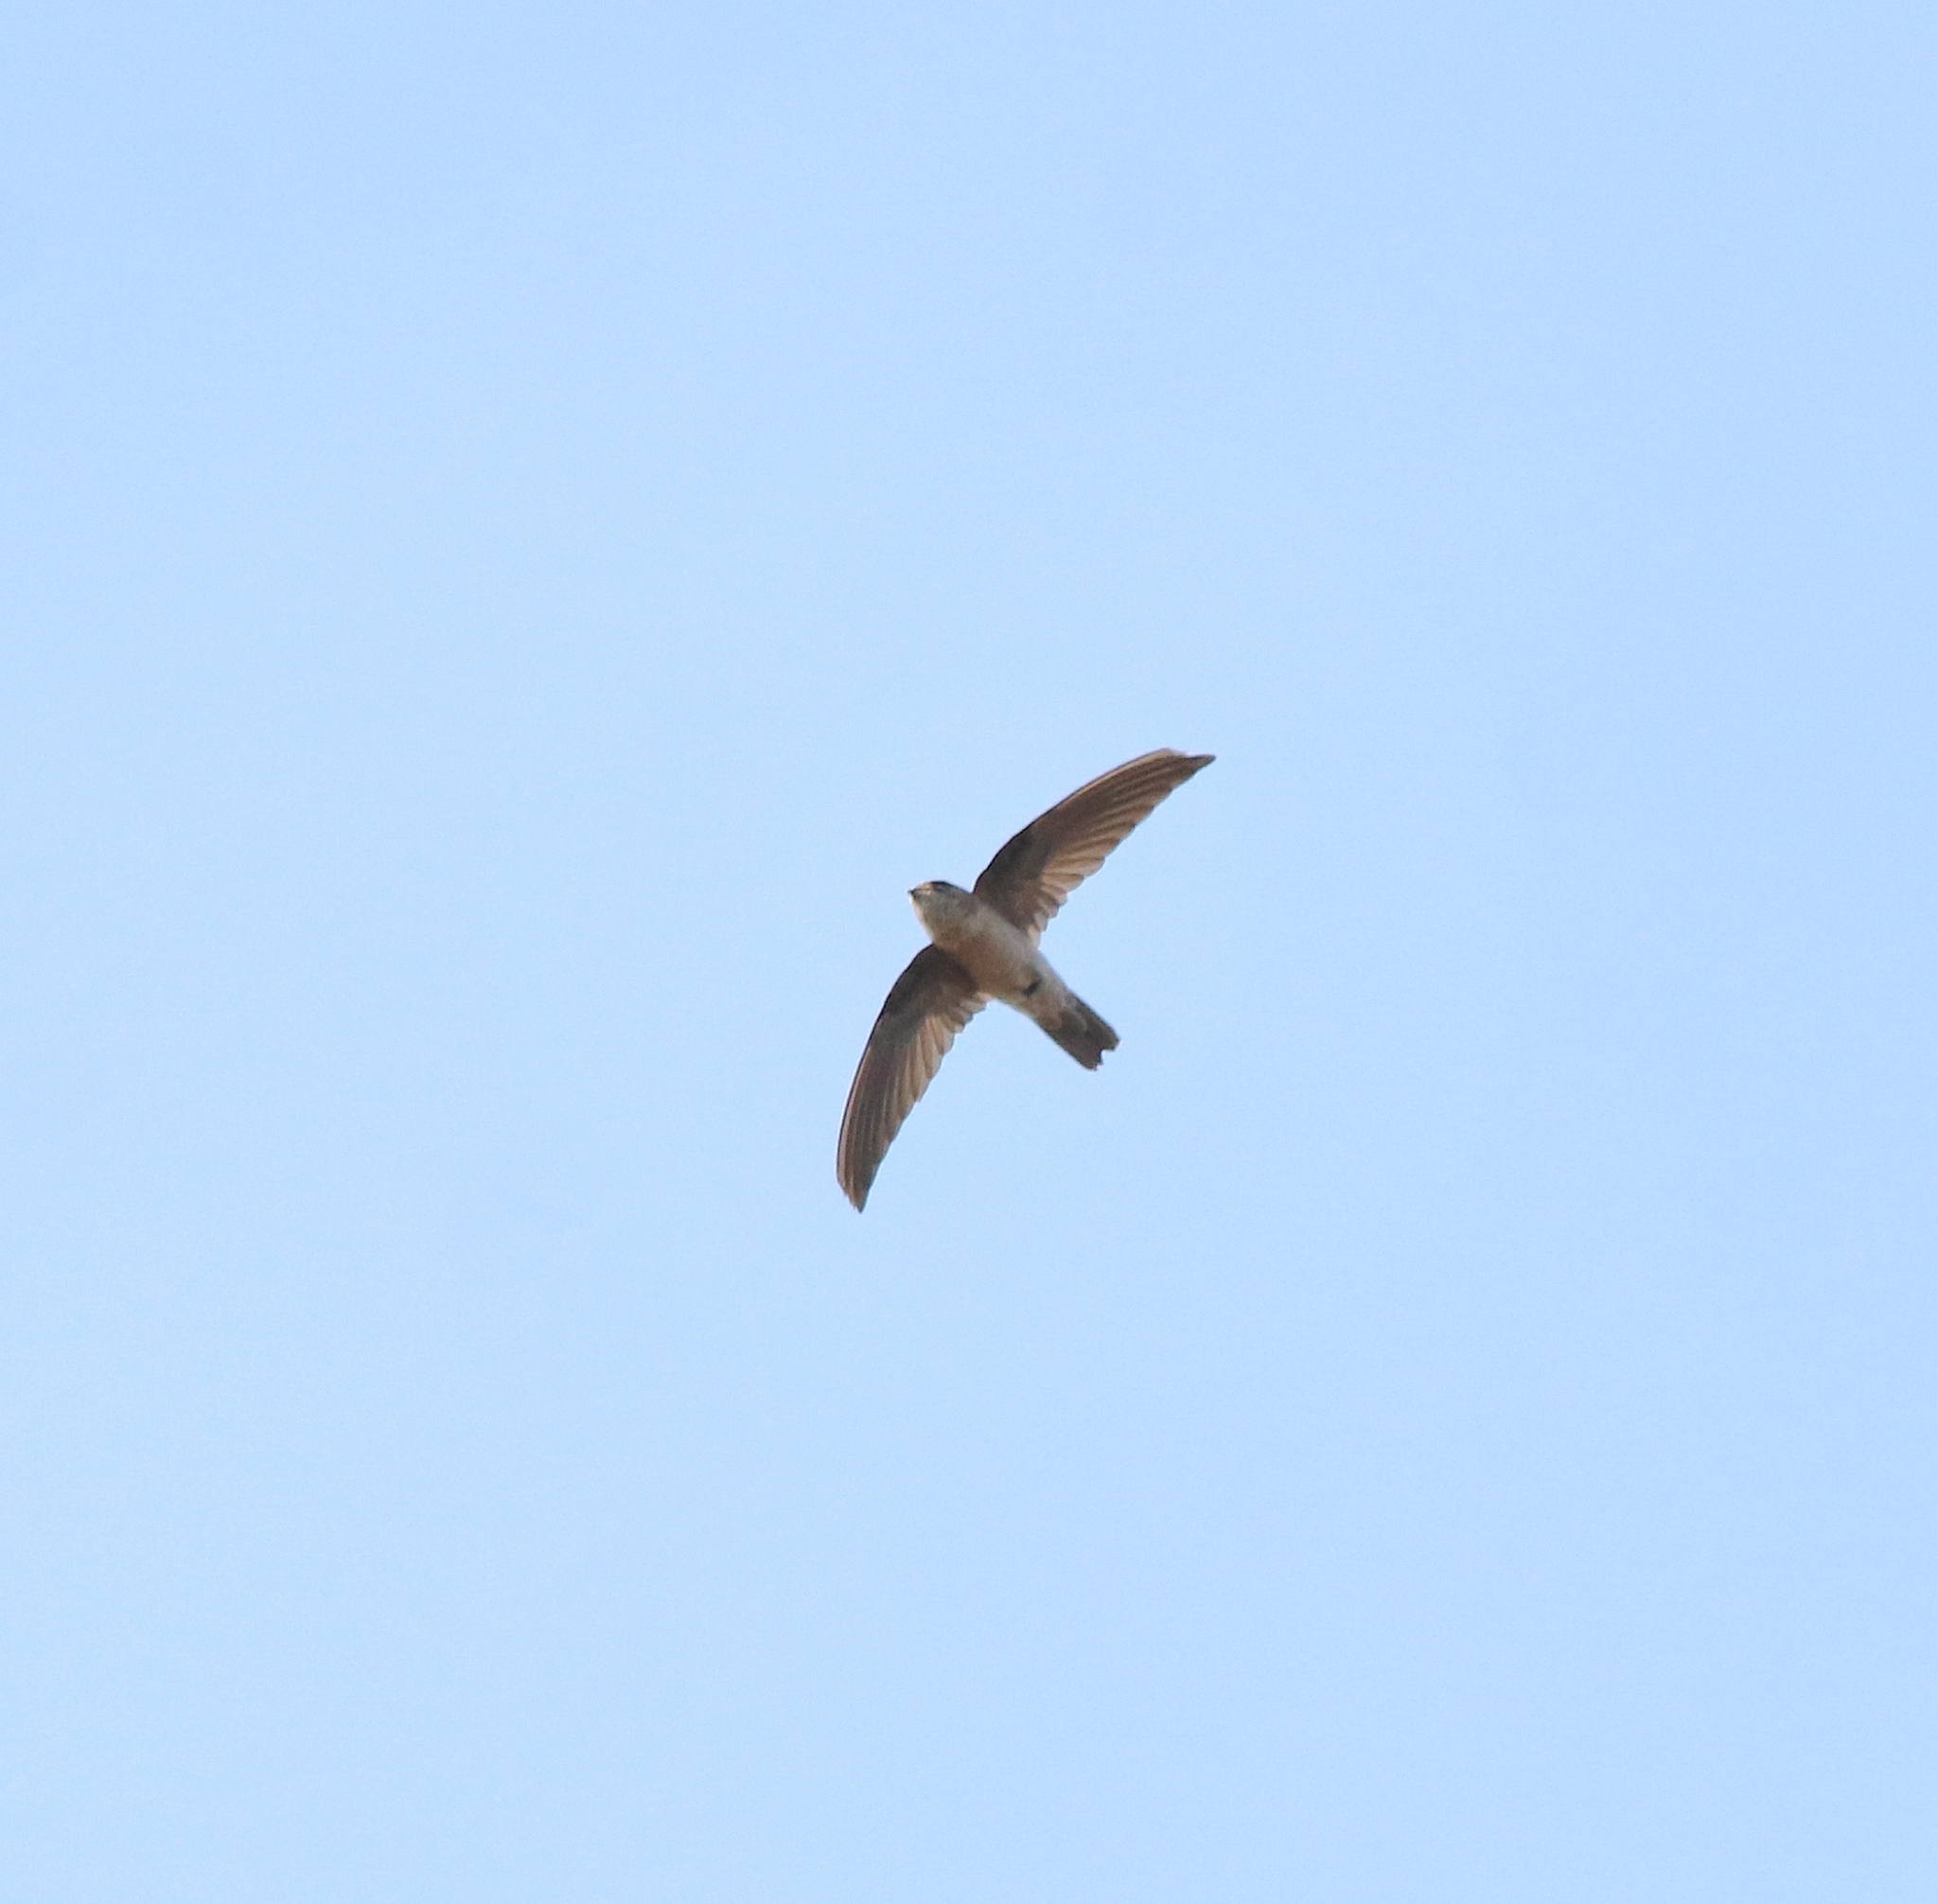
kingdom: Animalia
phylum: Chordata
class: Aves
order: Apodiformes
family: Apodidae
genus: Aerodramus
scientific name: Aerodramus unicolor
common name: Indian swiftlet
